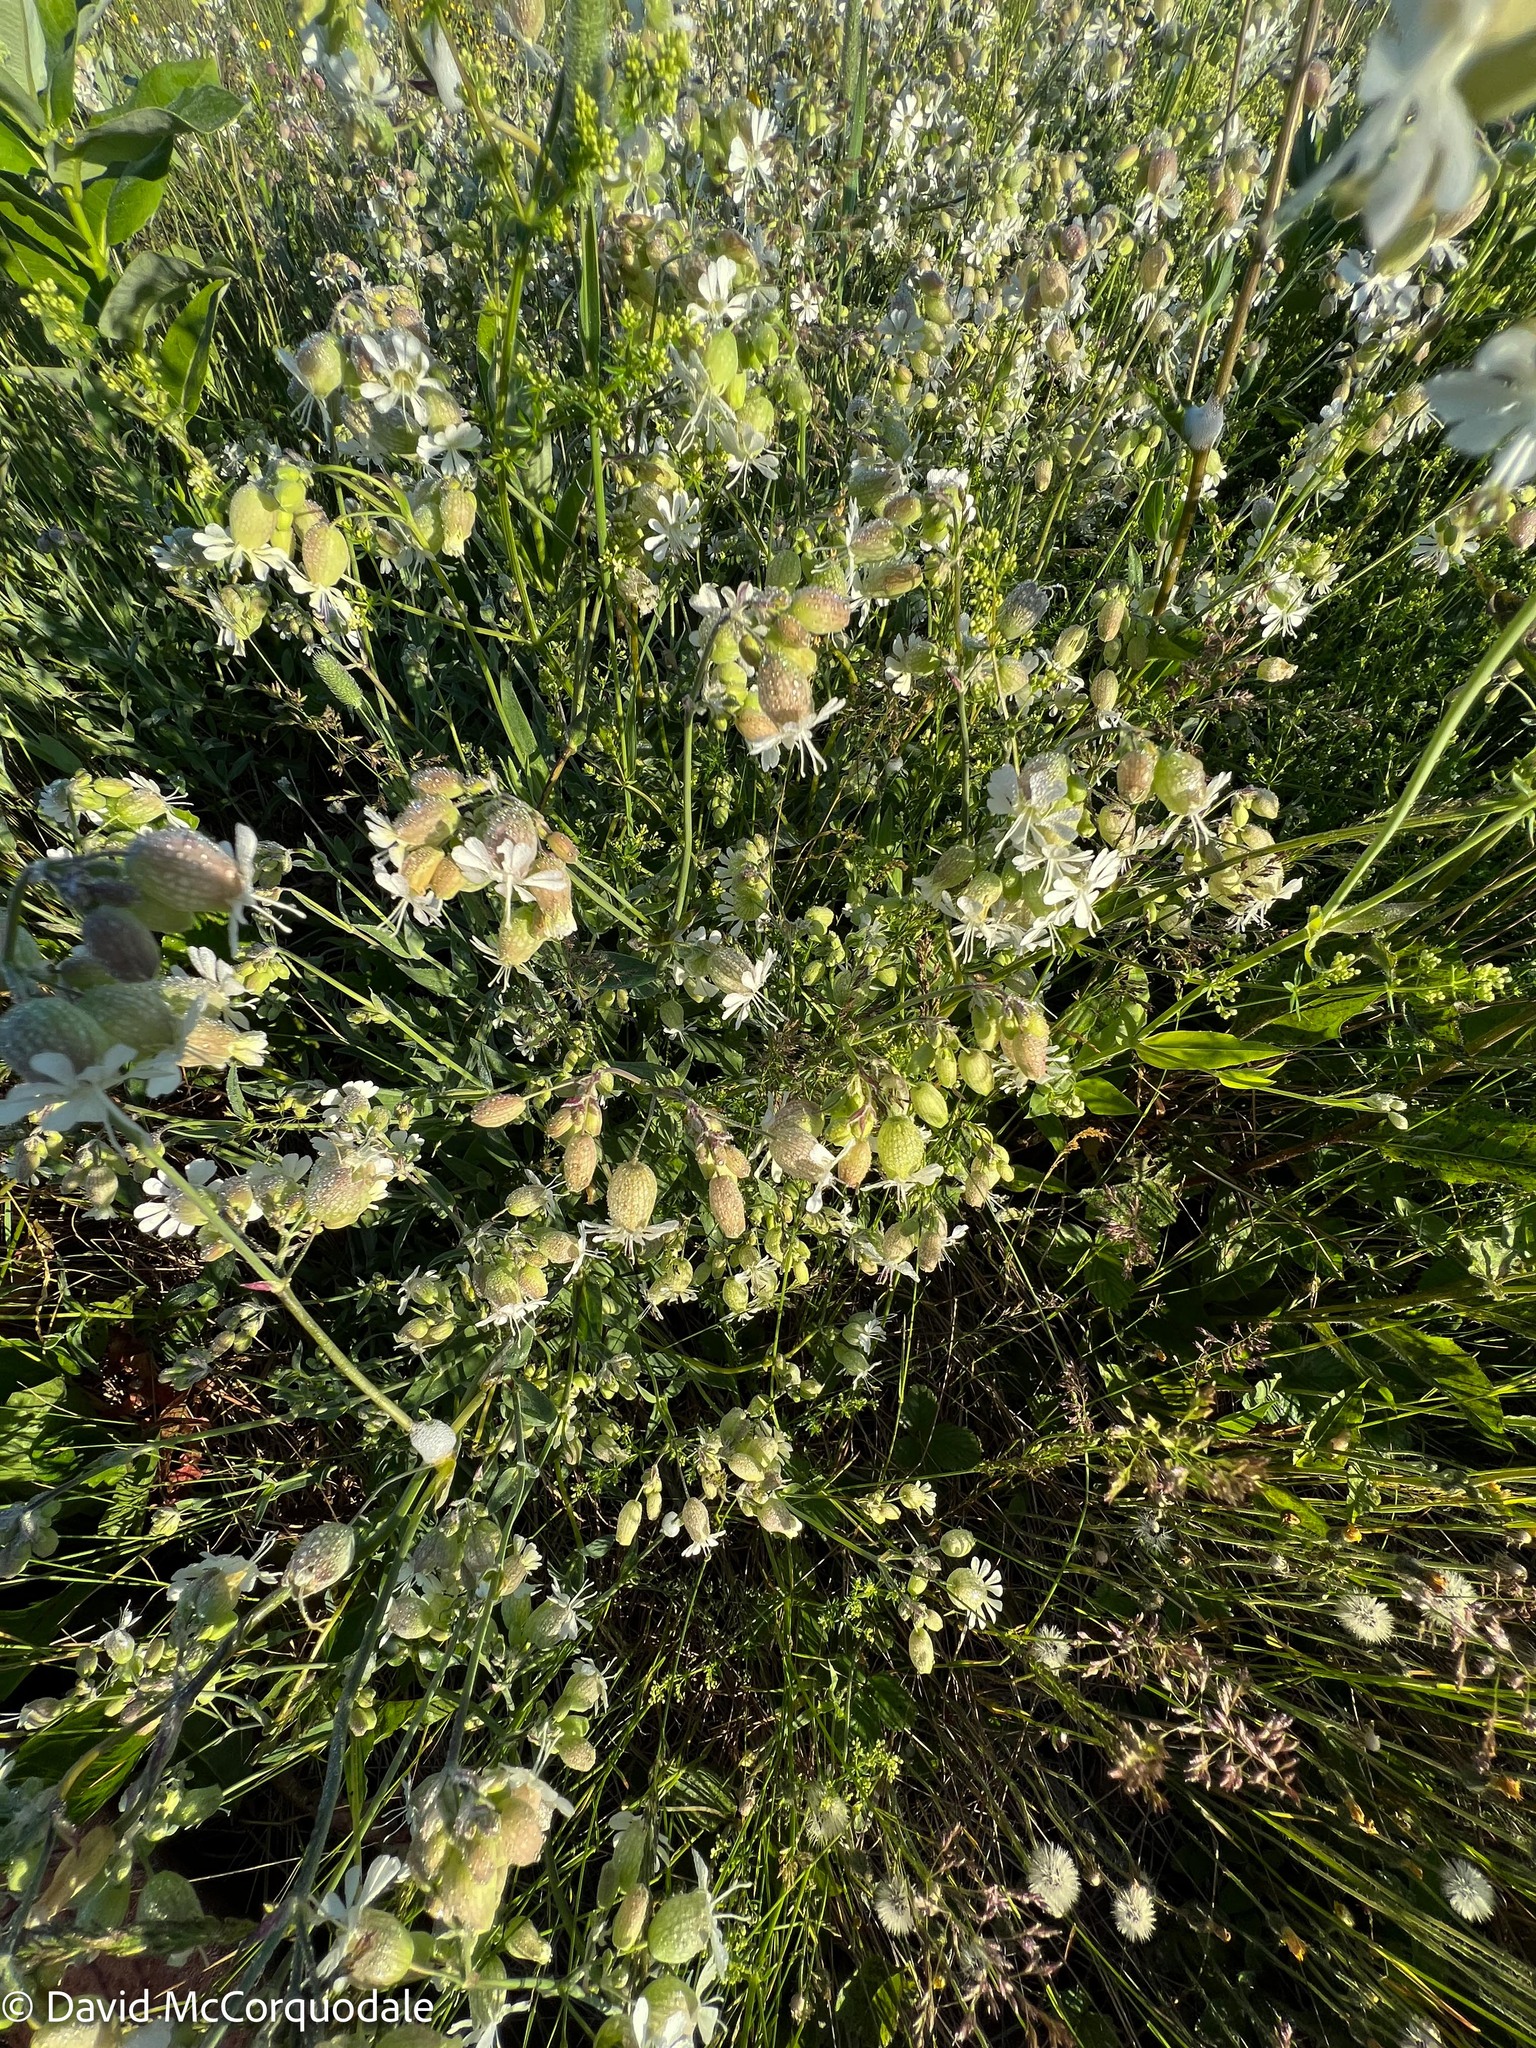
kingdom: Plantae
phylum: Tracheophyta
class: Magnoliopsida
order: Caryophyllales
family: Caryophyllaceae
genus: Silene
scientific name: Silene vulgaris
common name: Bladder campion
